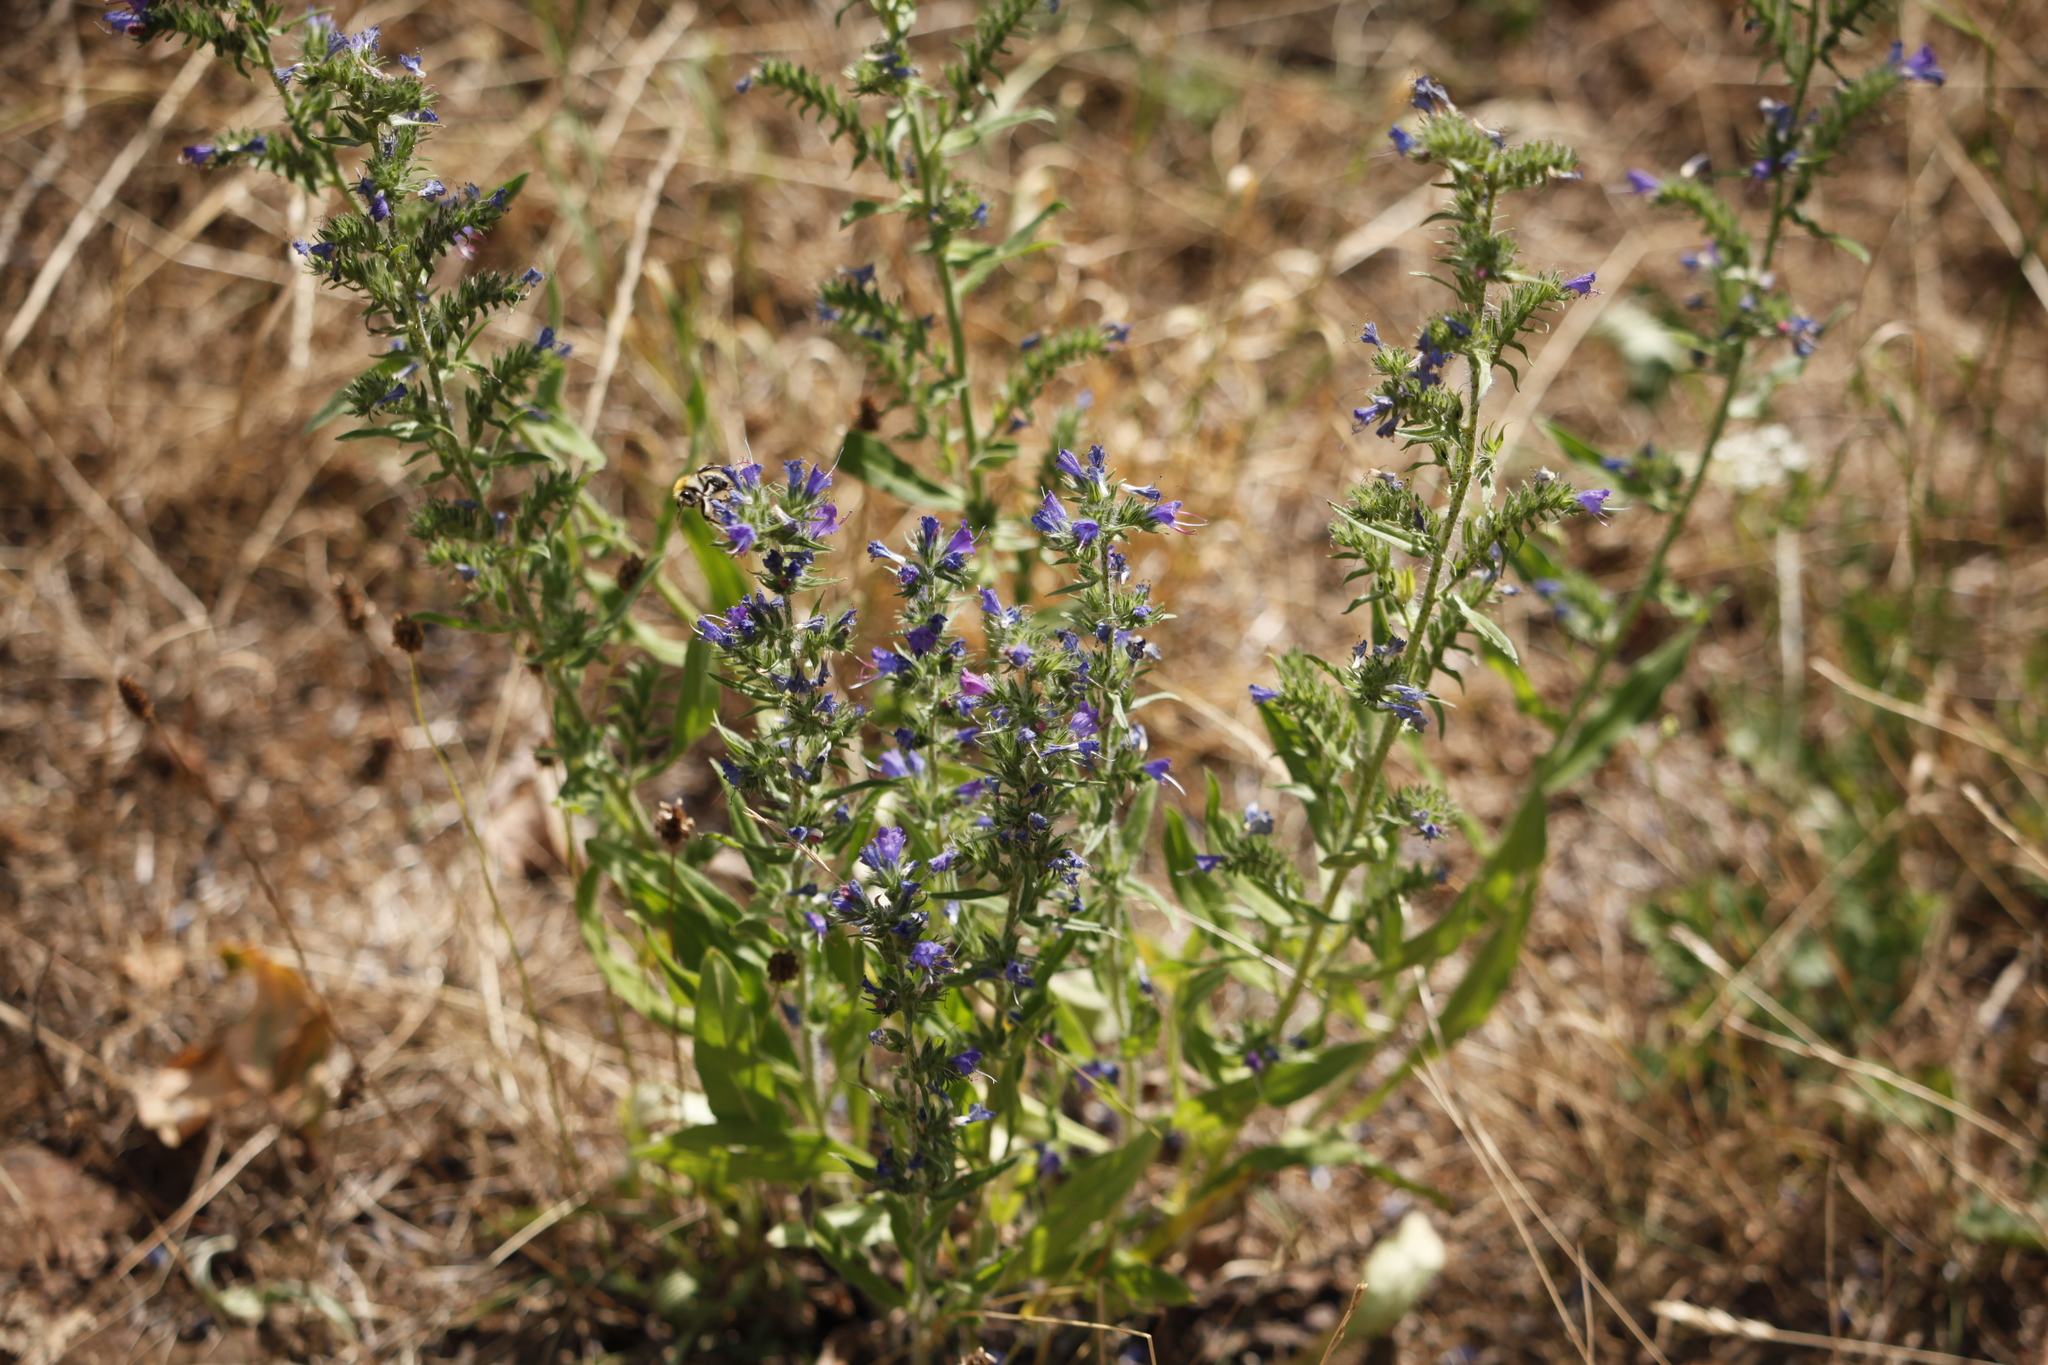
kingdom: Plantae
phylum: Tracheophyta
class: Magnoliopsida
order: Boraginales
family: Boraginaceae
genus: Echium
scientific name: Echium vulgare
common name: Common viper's bugloss
